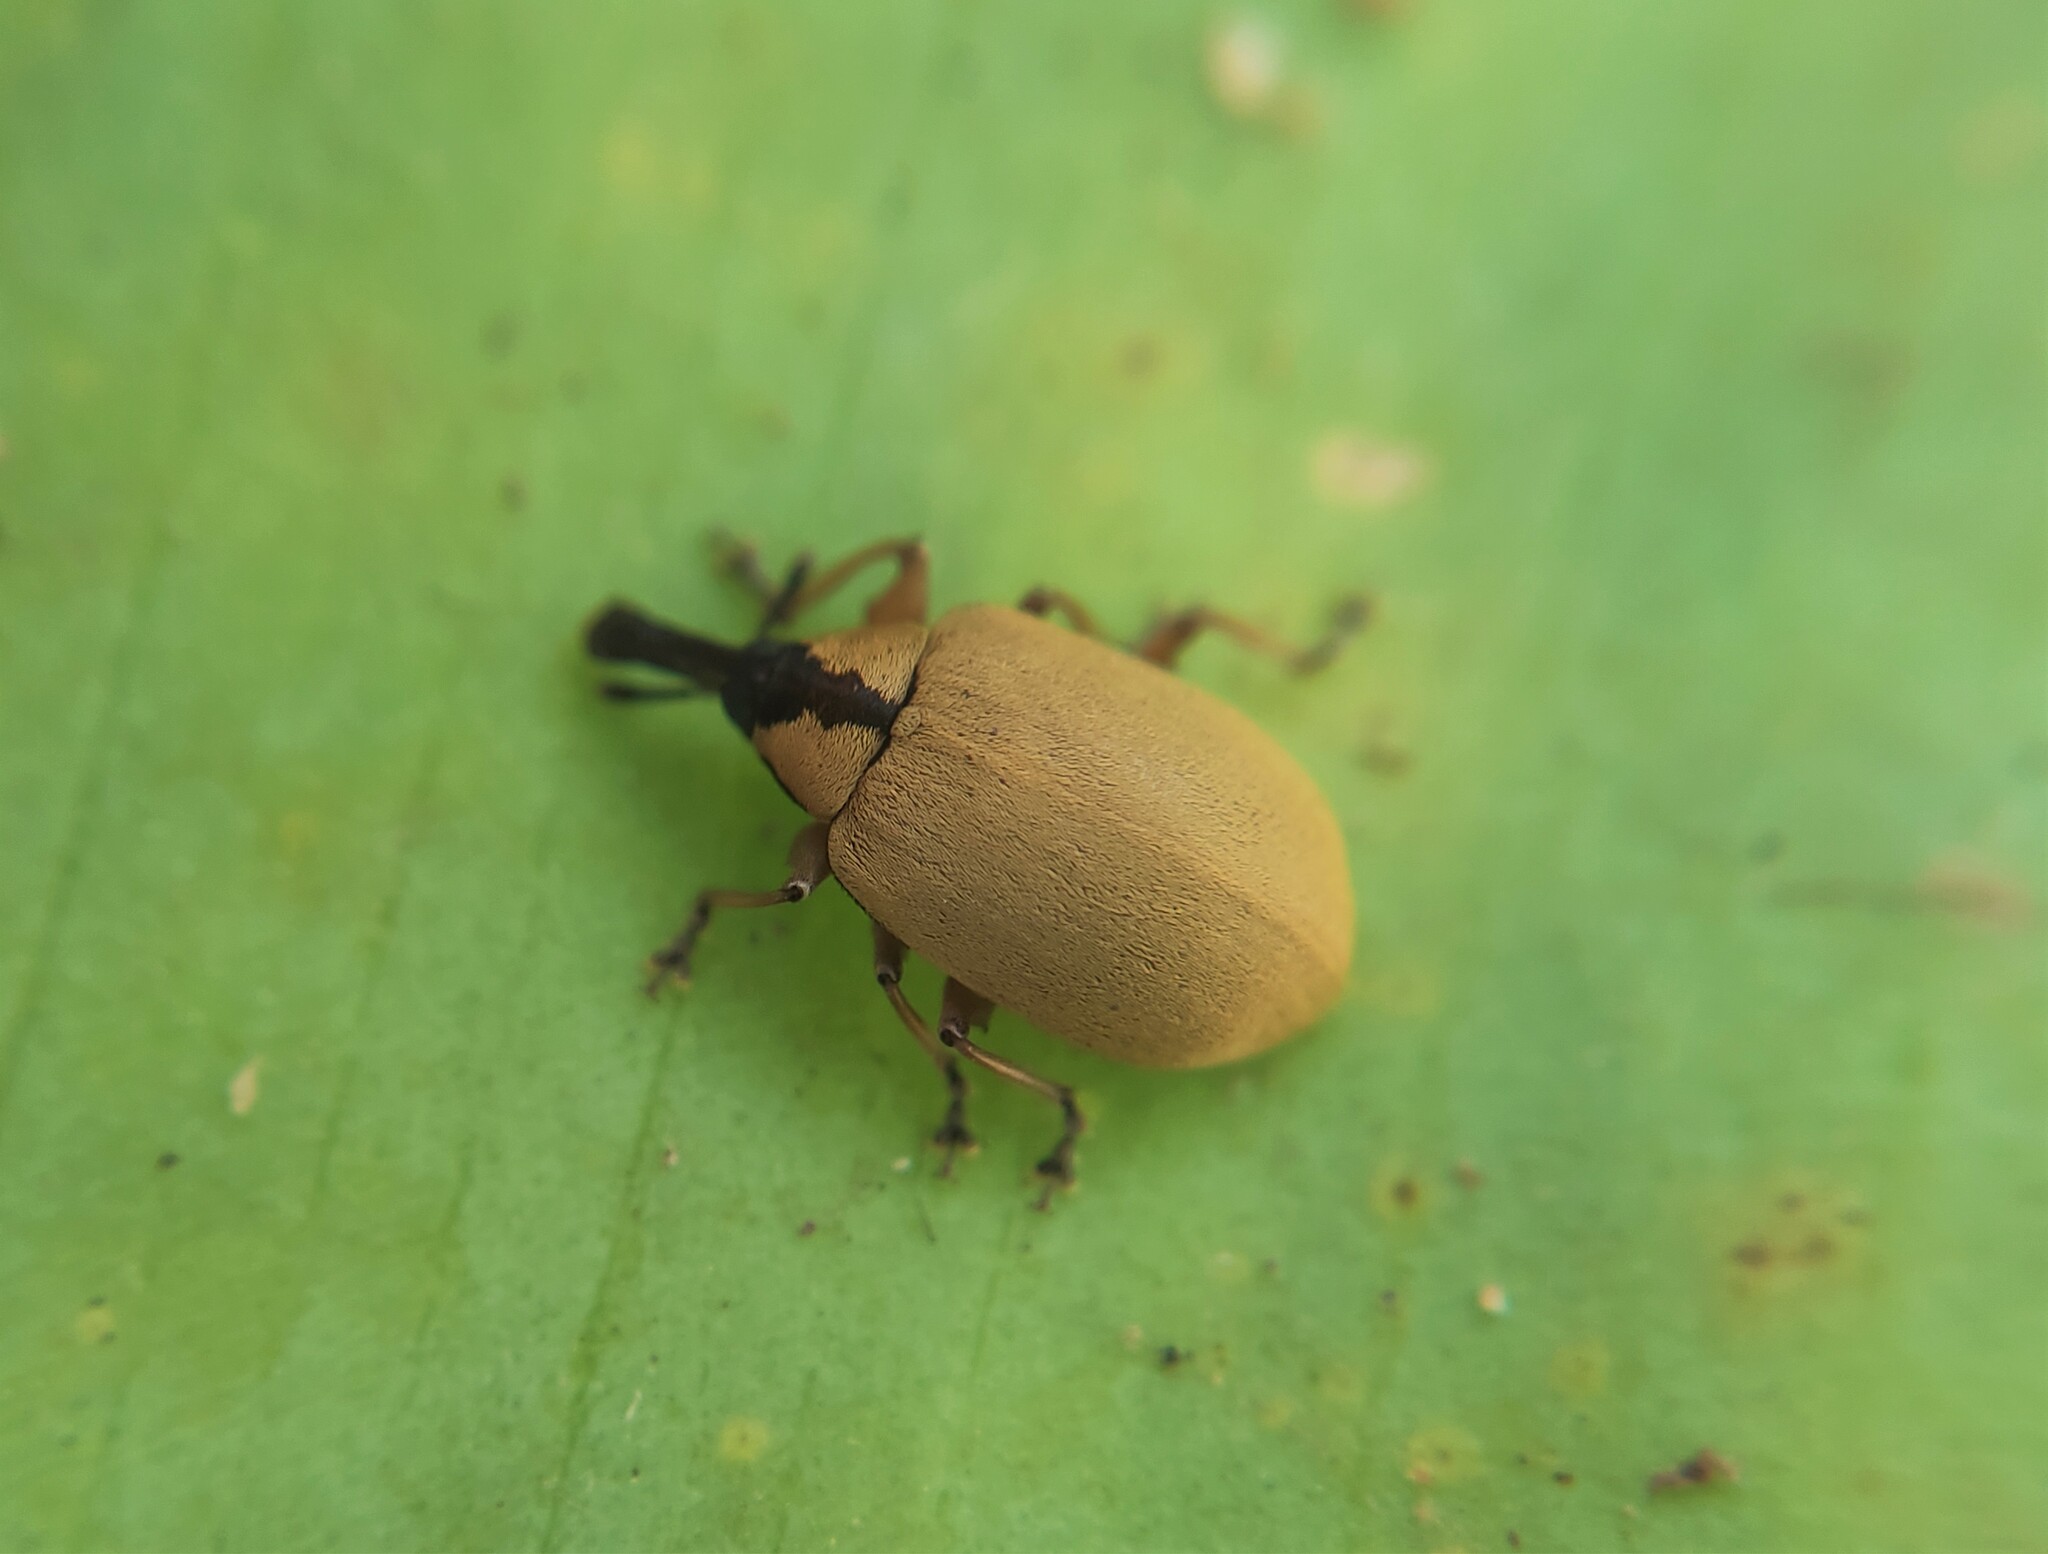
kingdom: Animalia
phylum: Arthropoda
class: Insecta
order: Coleoptera
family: Curculionidae
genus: Anchylorhynchus
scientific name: Anchylorhynchus variabilis
